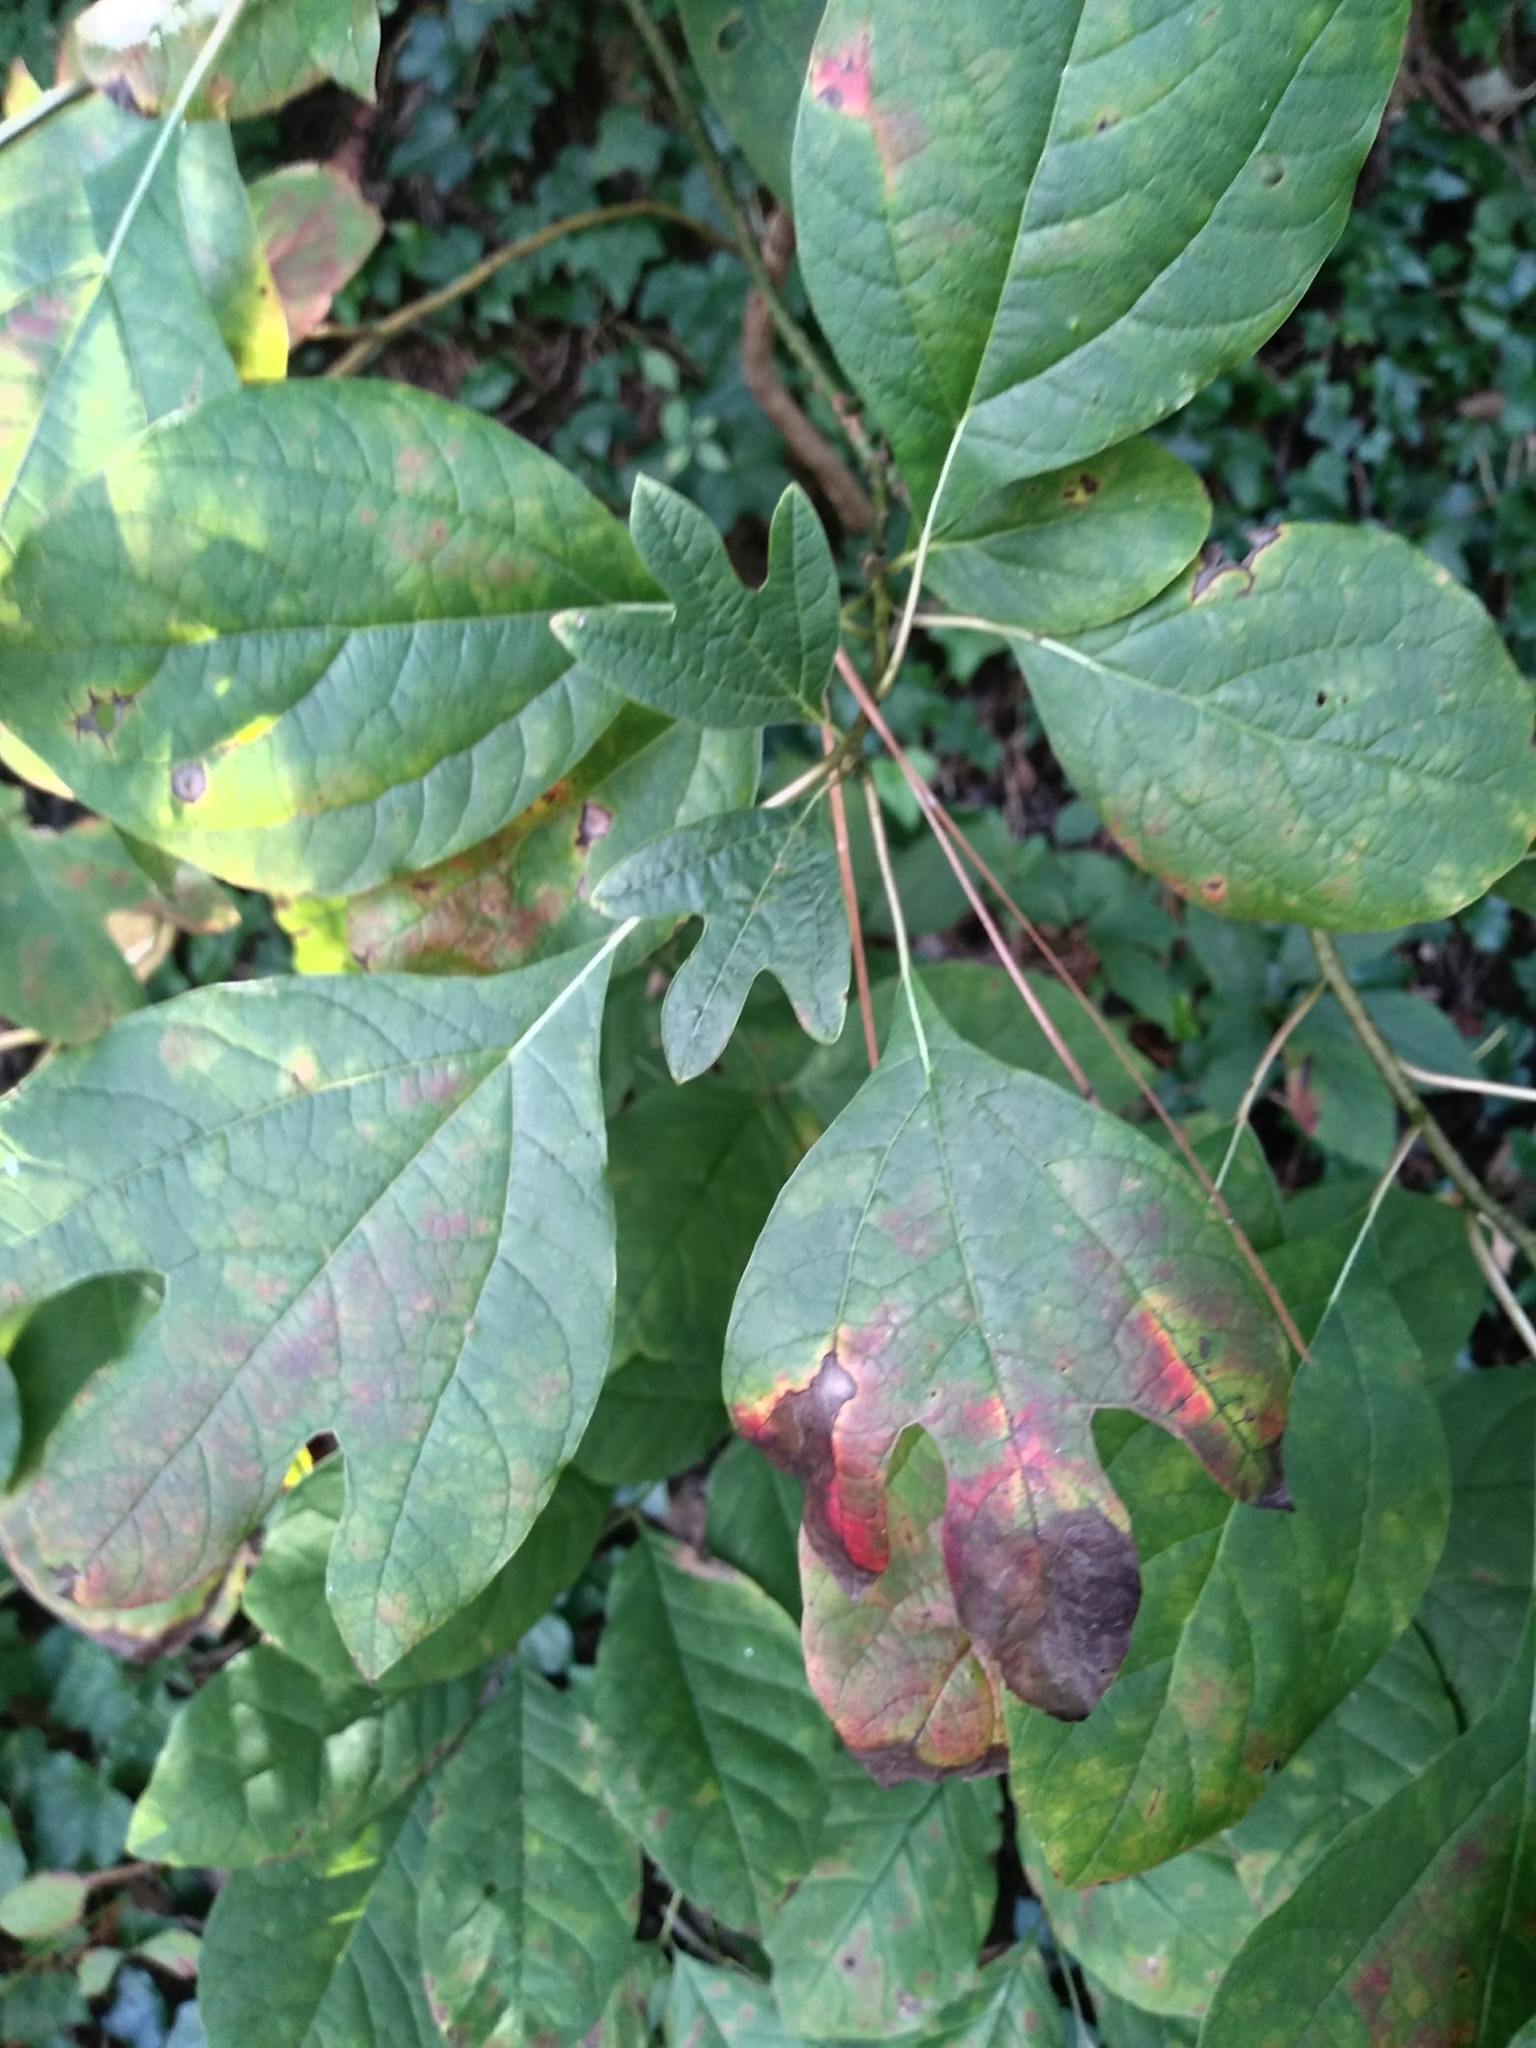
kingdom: Plantae
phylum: Tracheophyta
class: Magnoliopsida
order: Laurales
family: Lauraceae
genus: Sassafras
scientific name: Sassafras albidum
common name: Sassafras
